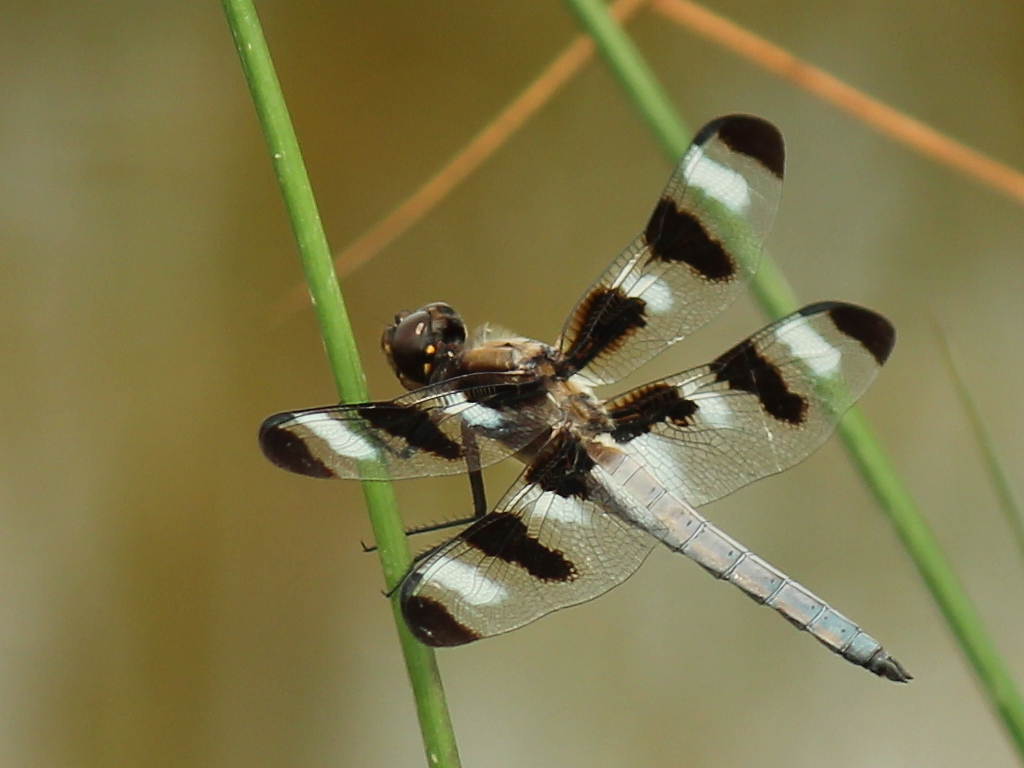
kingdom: Animalia
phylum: Arthropoda
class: Insecta
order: Odonata
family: Libellulidae
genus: Libellula
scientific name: Libellula pulchella
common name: Twelve-spotted skimmer
